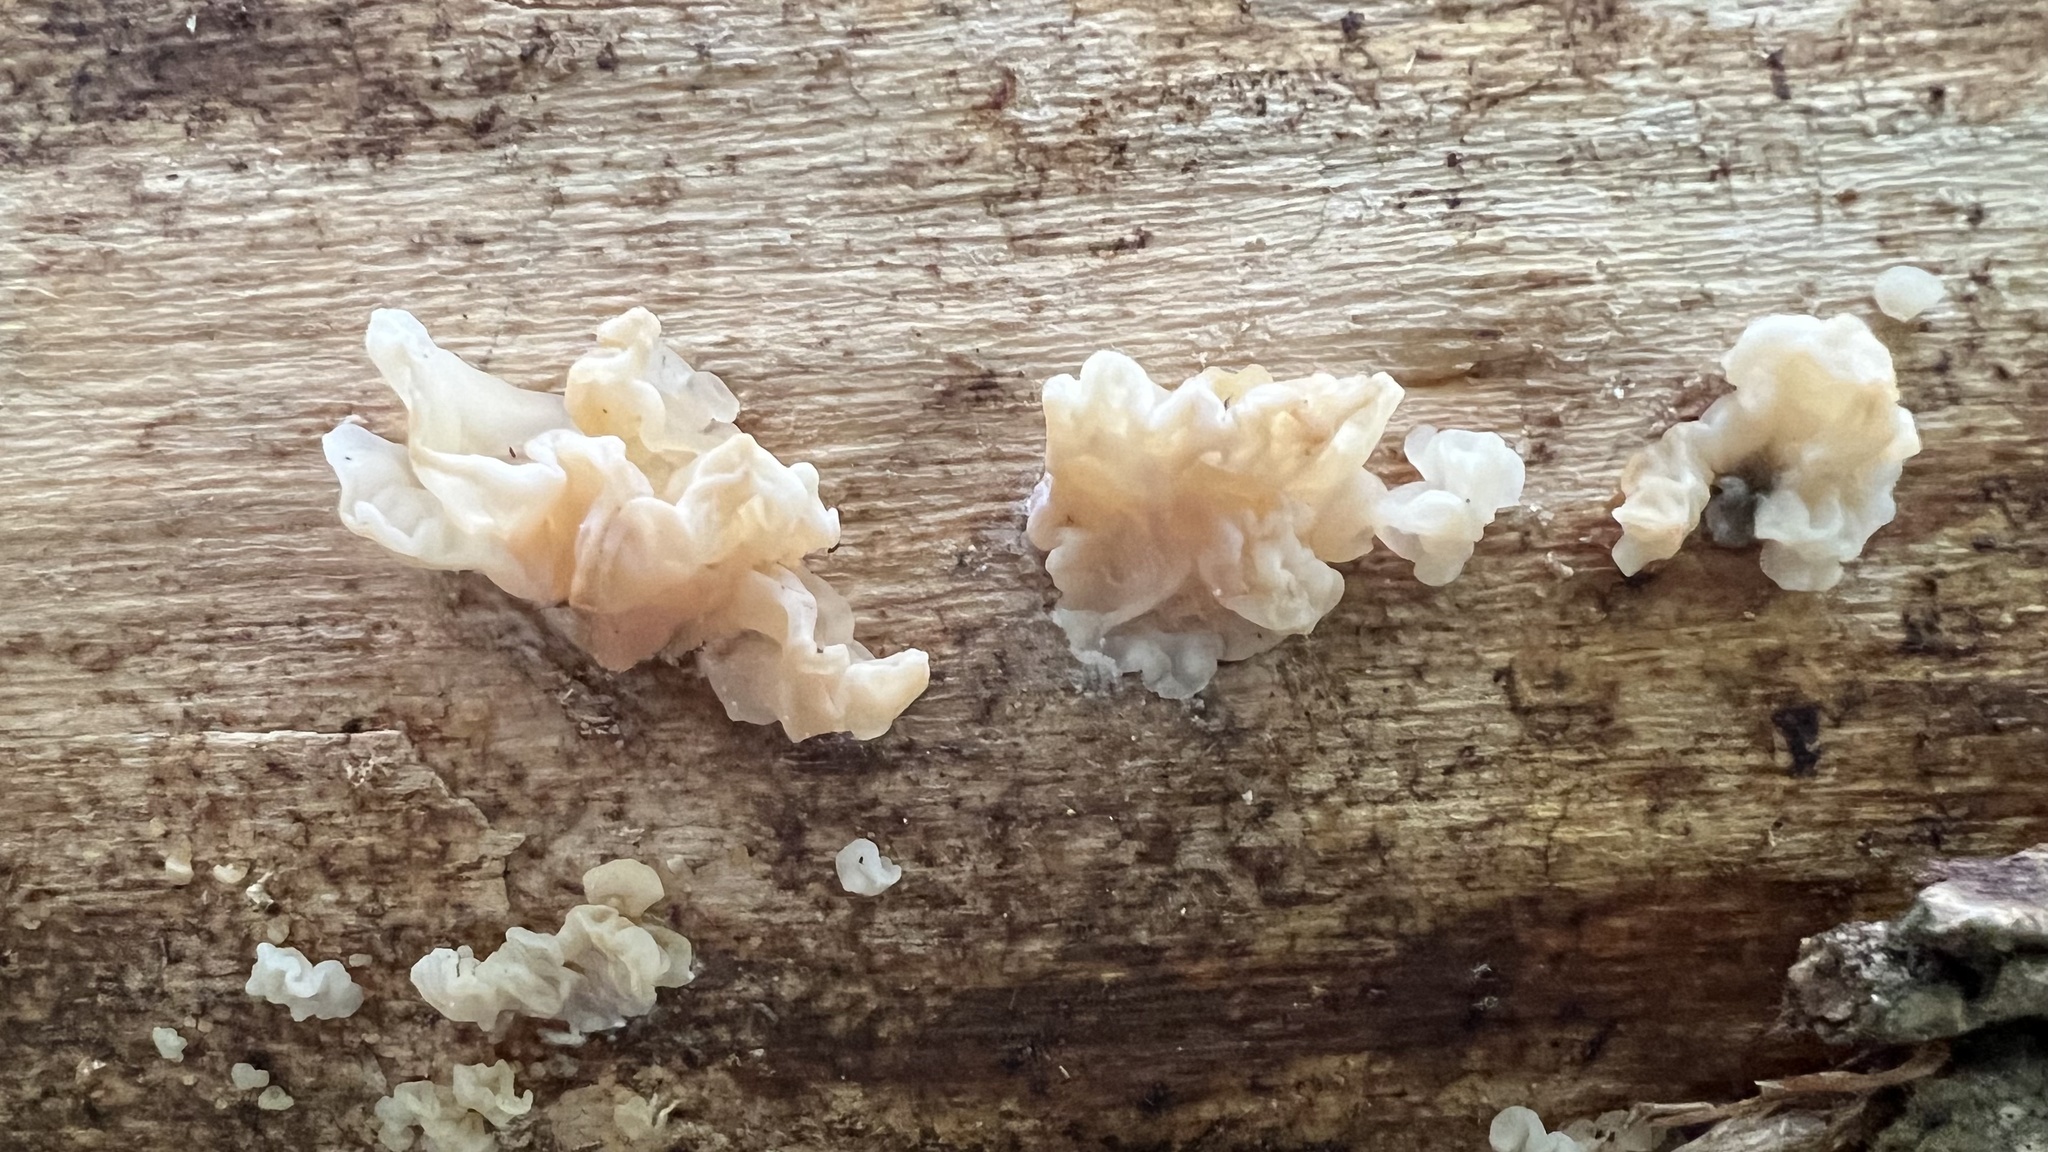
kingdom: Fungi
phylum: Basidiomycota
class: Agaricomycetes
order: Auriculariales
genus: Ductifera
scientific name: Ductifera pululahuana
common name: White jelly fungus
